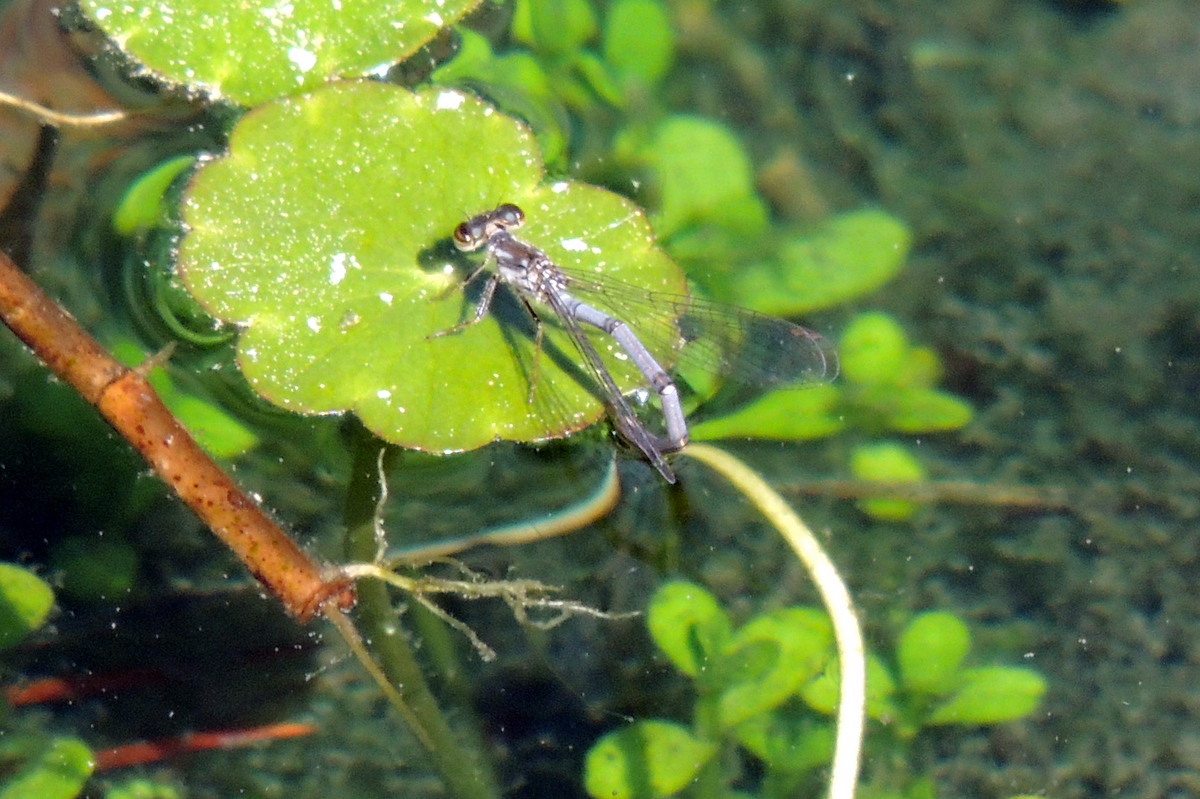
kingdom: Animalia
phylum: Arthropoda
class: Insecta
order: Odonata
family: Coenagrionidae
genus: Ischnura
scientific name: Ischnura posita
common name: Fragile forktail
